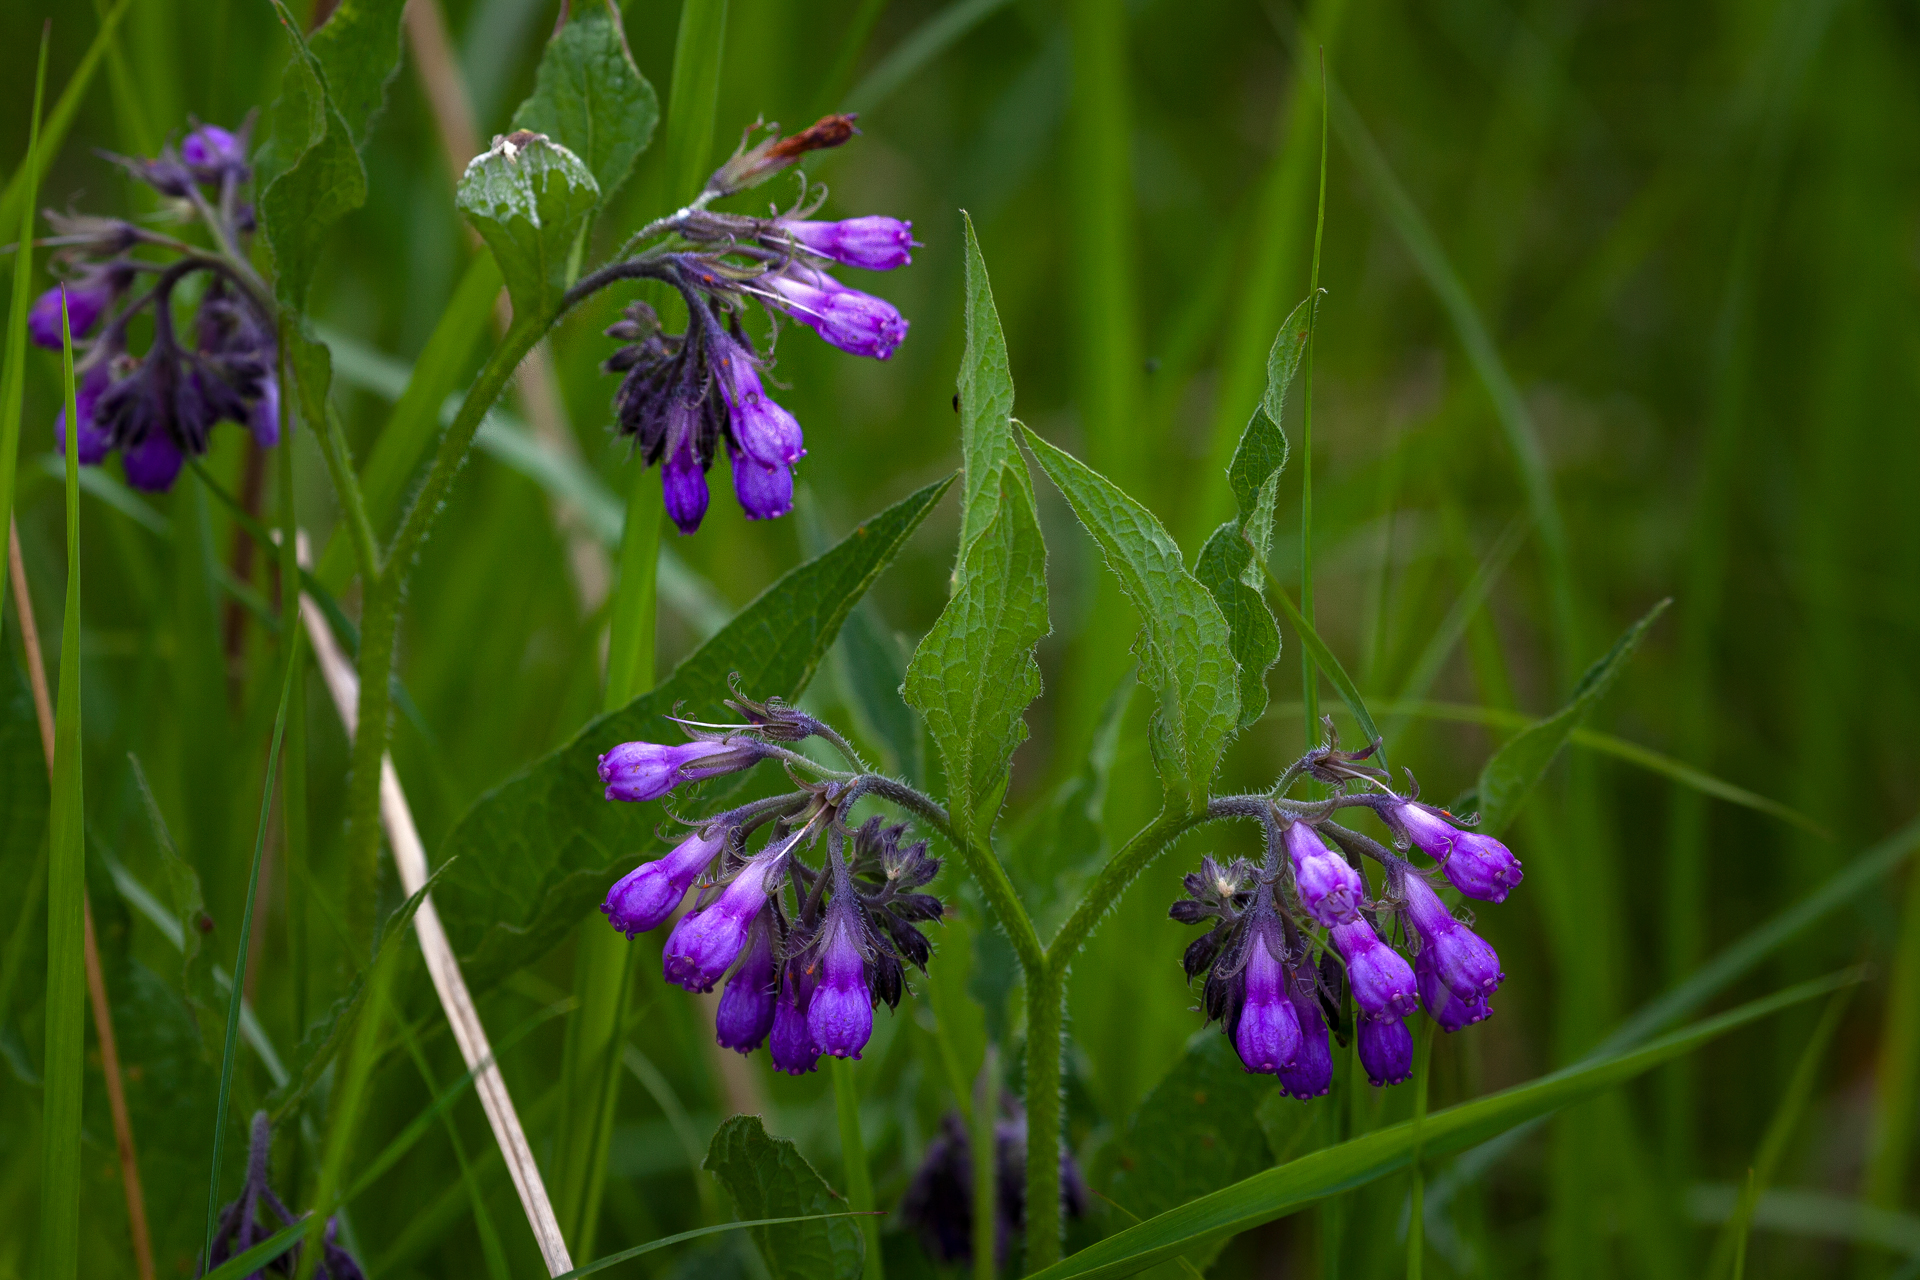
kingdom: Plantae
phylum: Tracheophyta
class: Magnoliopsida
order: Boraginales
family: Boraginaceae
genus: Symphytum
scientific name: Symphytum officinale
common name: Common comfrey
